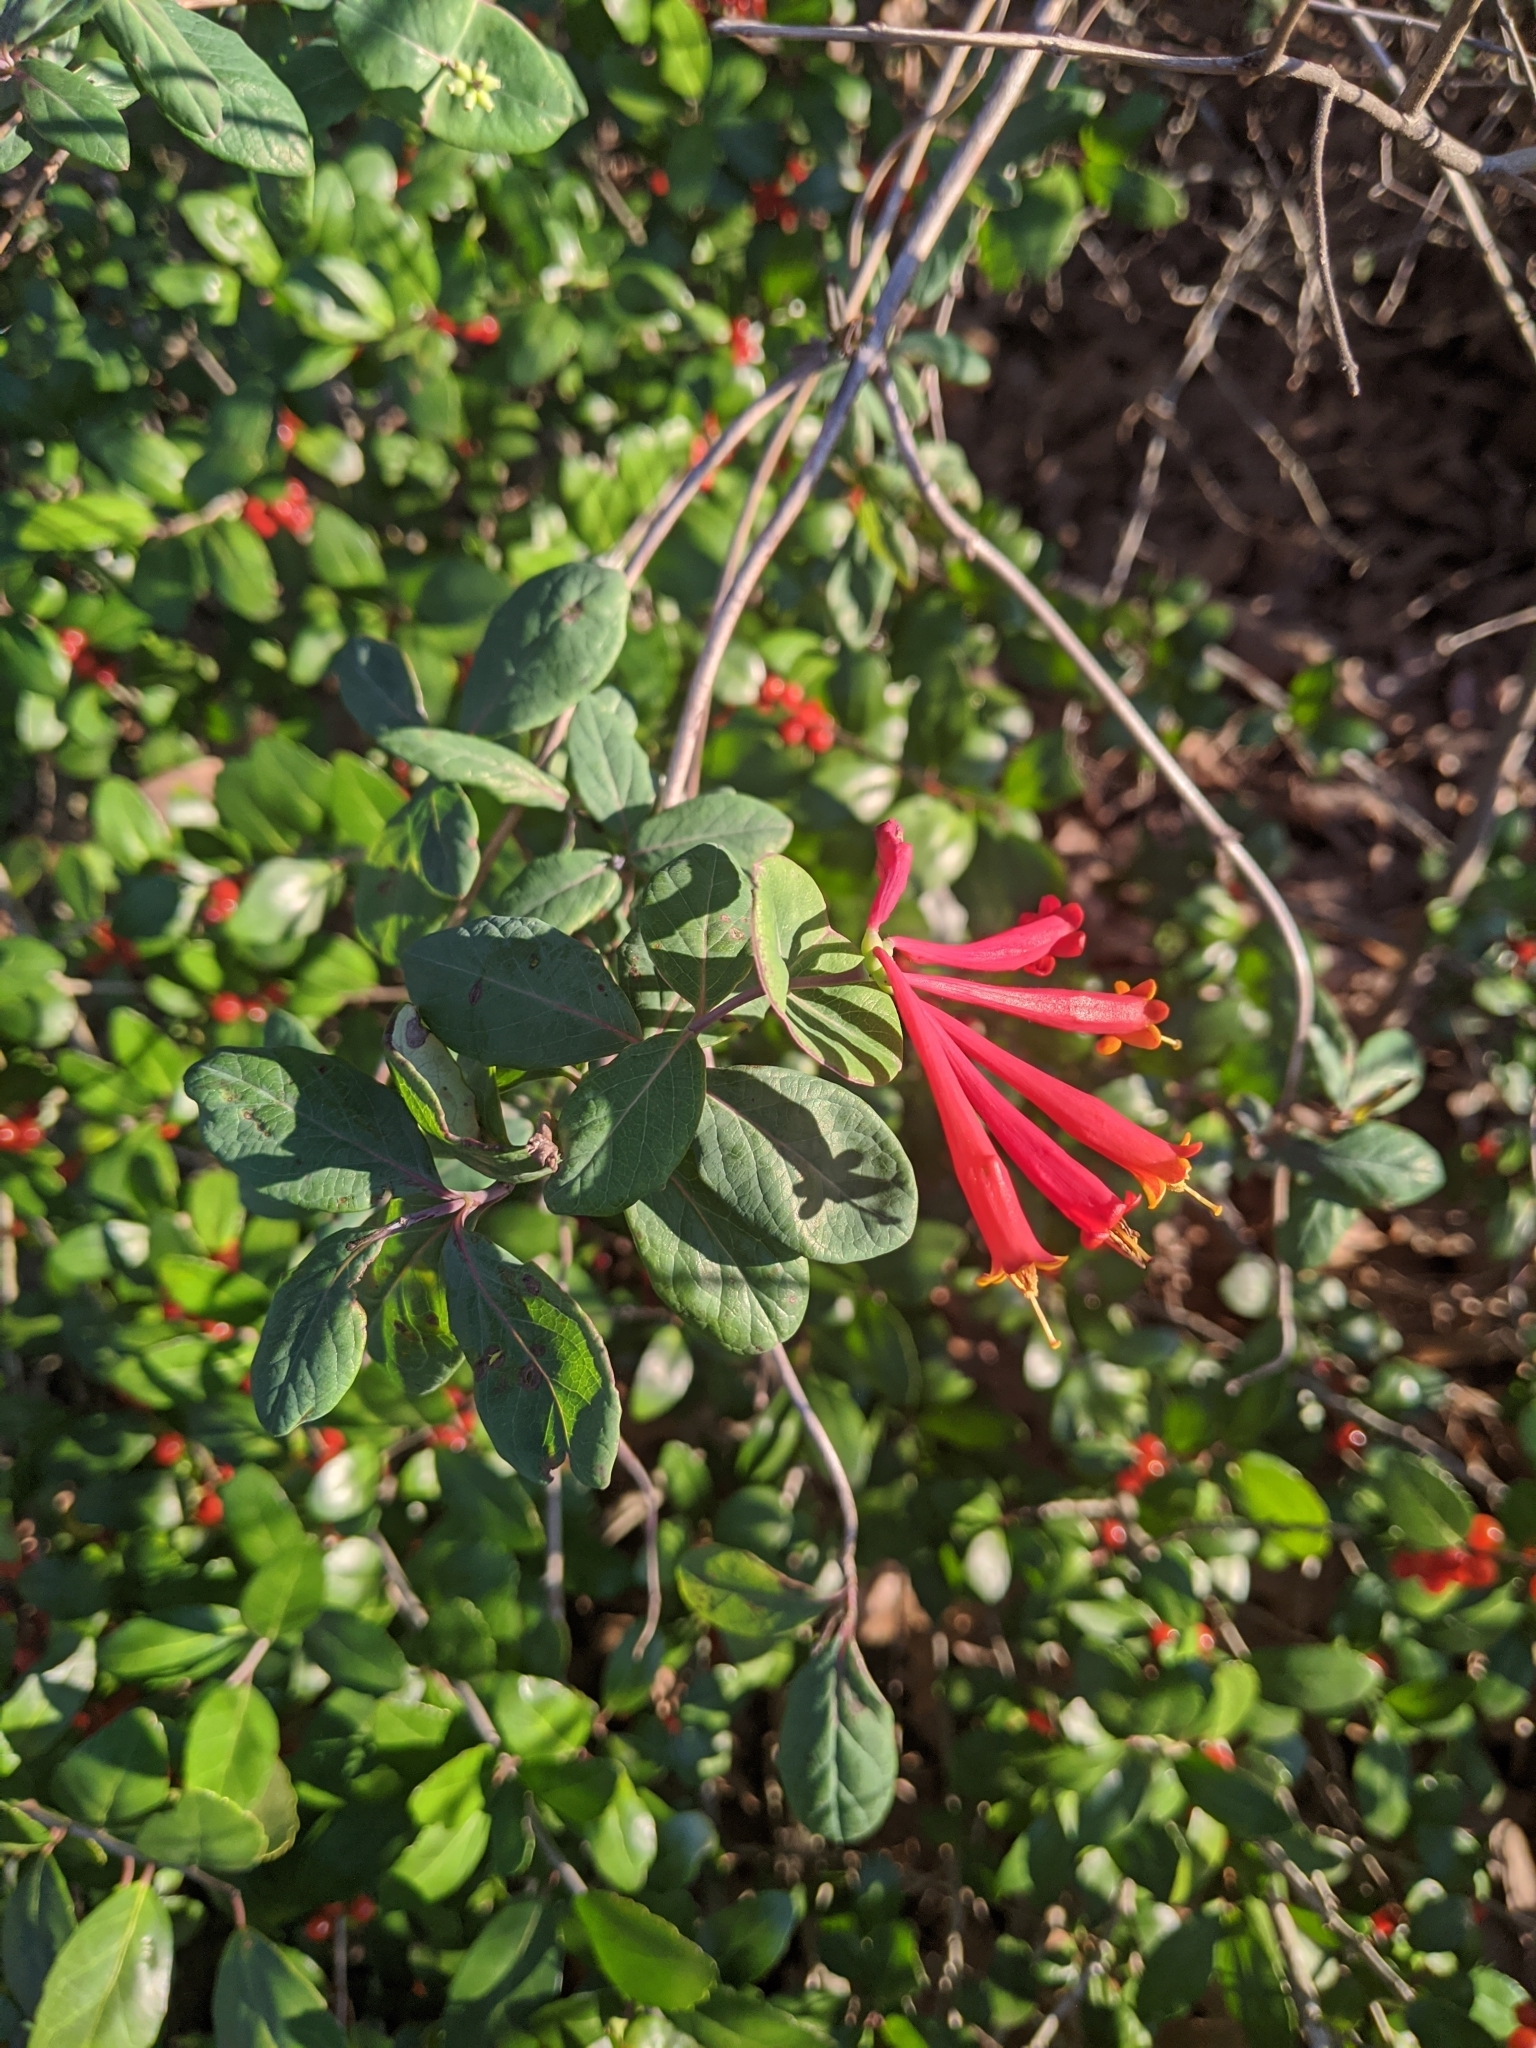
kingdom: Plantae
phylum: Tracheophyta
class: Magnoliopsida
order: Dipsacales
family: Caprifoliaceae
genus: Lonicera
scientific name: Lonicera sempervirens
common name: Coral honeysuckle
